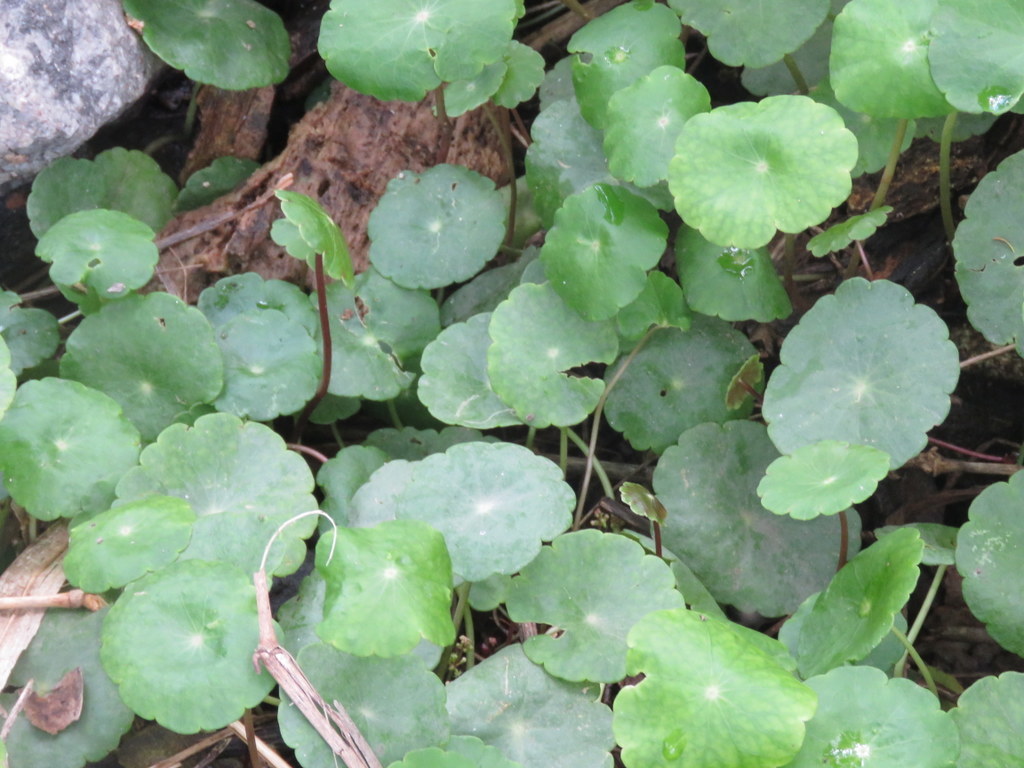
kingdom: Plantae
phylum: Tracheophyta
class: Magnoliopsida
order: Apiales
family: Araliaceae
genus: Hydrocotyle
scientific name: Hydrocotyle bonariensis
